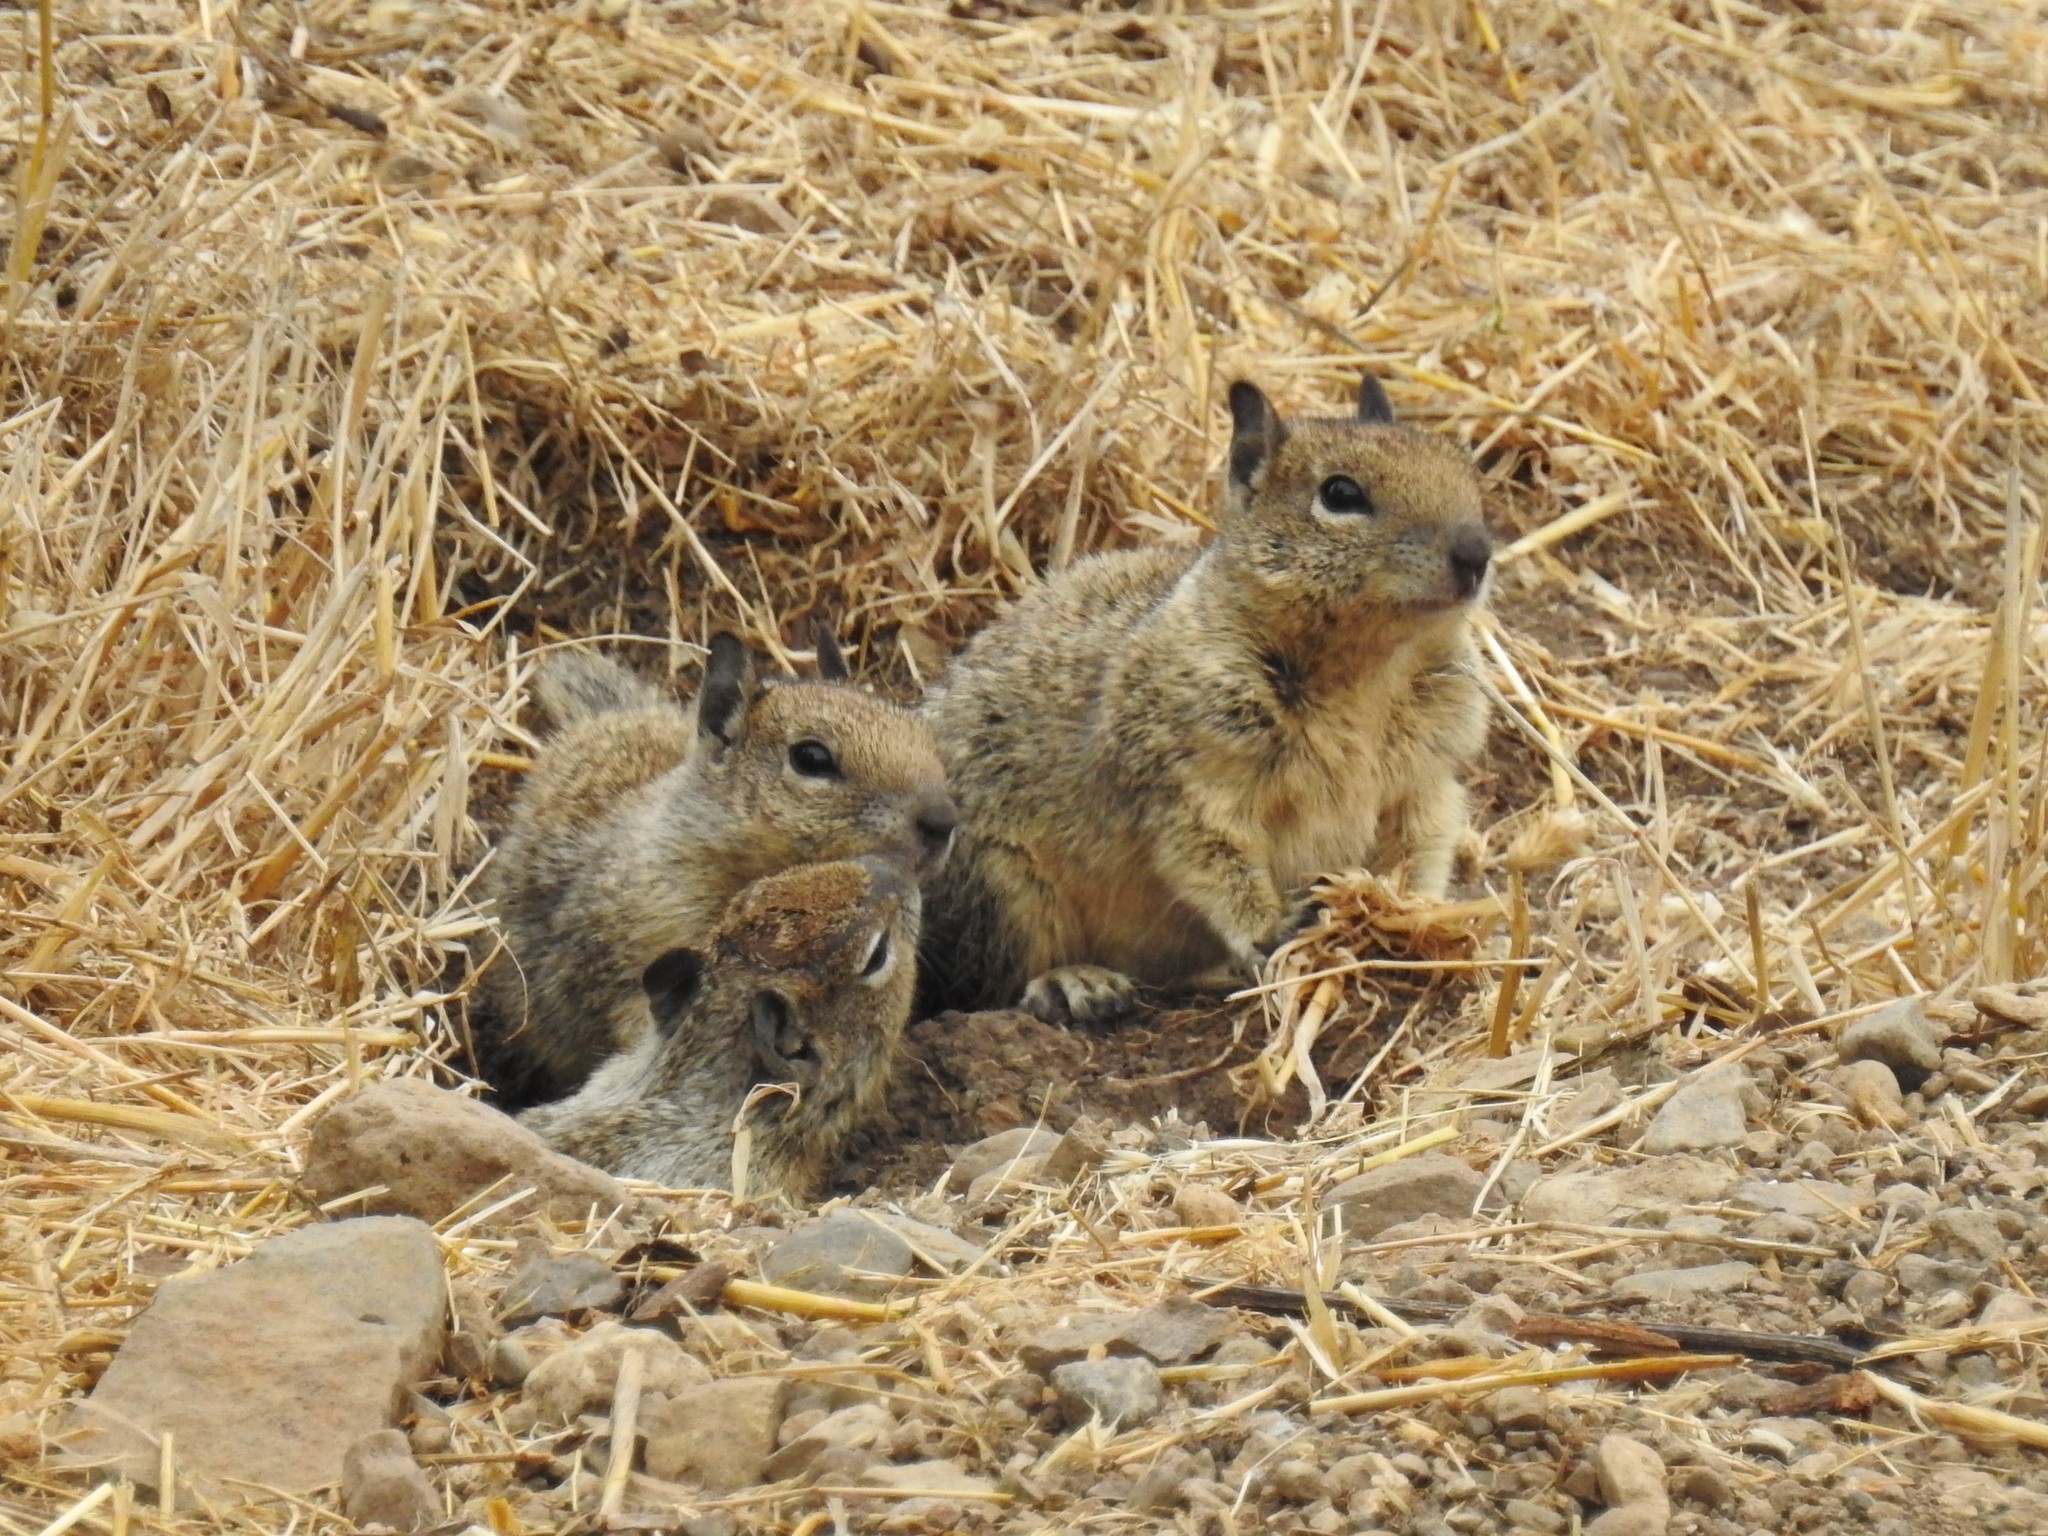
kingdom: Animalia
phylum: Chordata
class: Mammalia
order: Rodentia
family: Sciuridae
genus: Otospermophilus
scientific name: Otospermophilus beecheyi
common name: California ground squirrel
